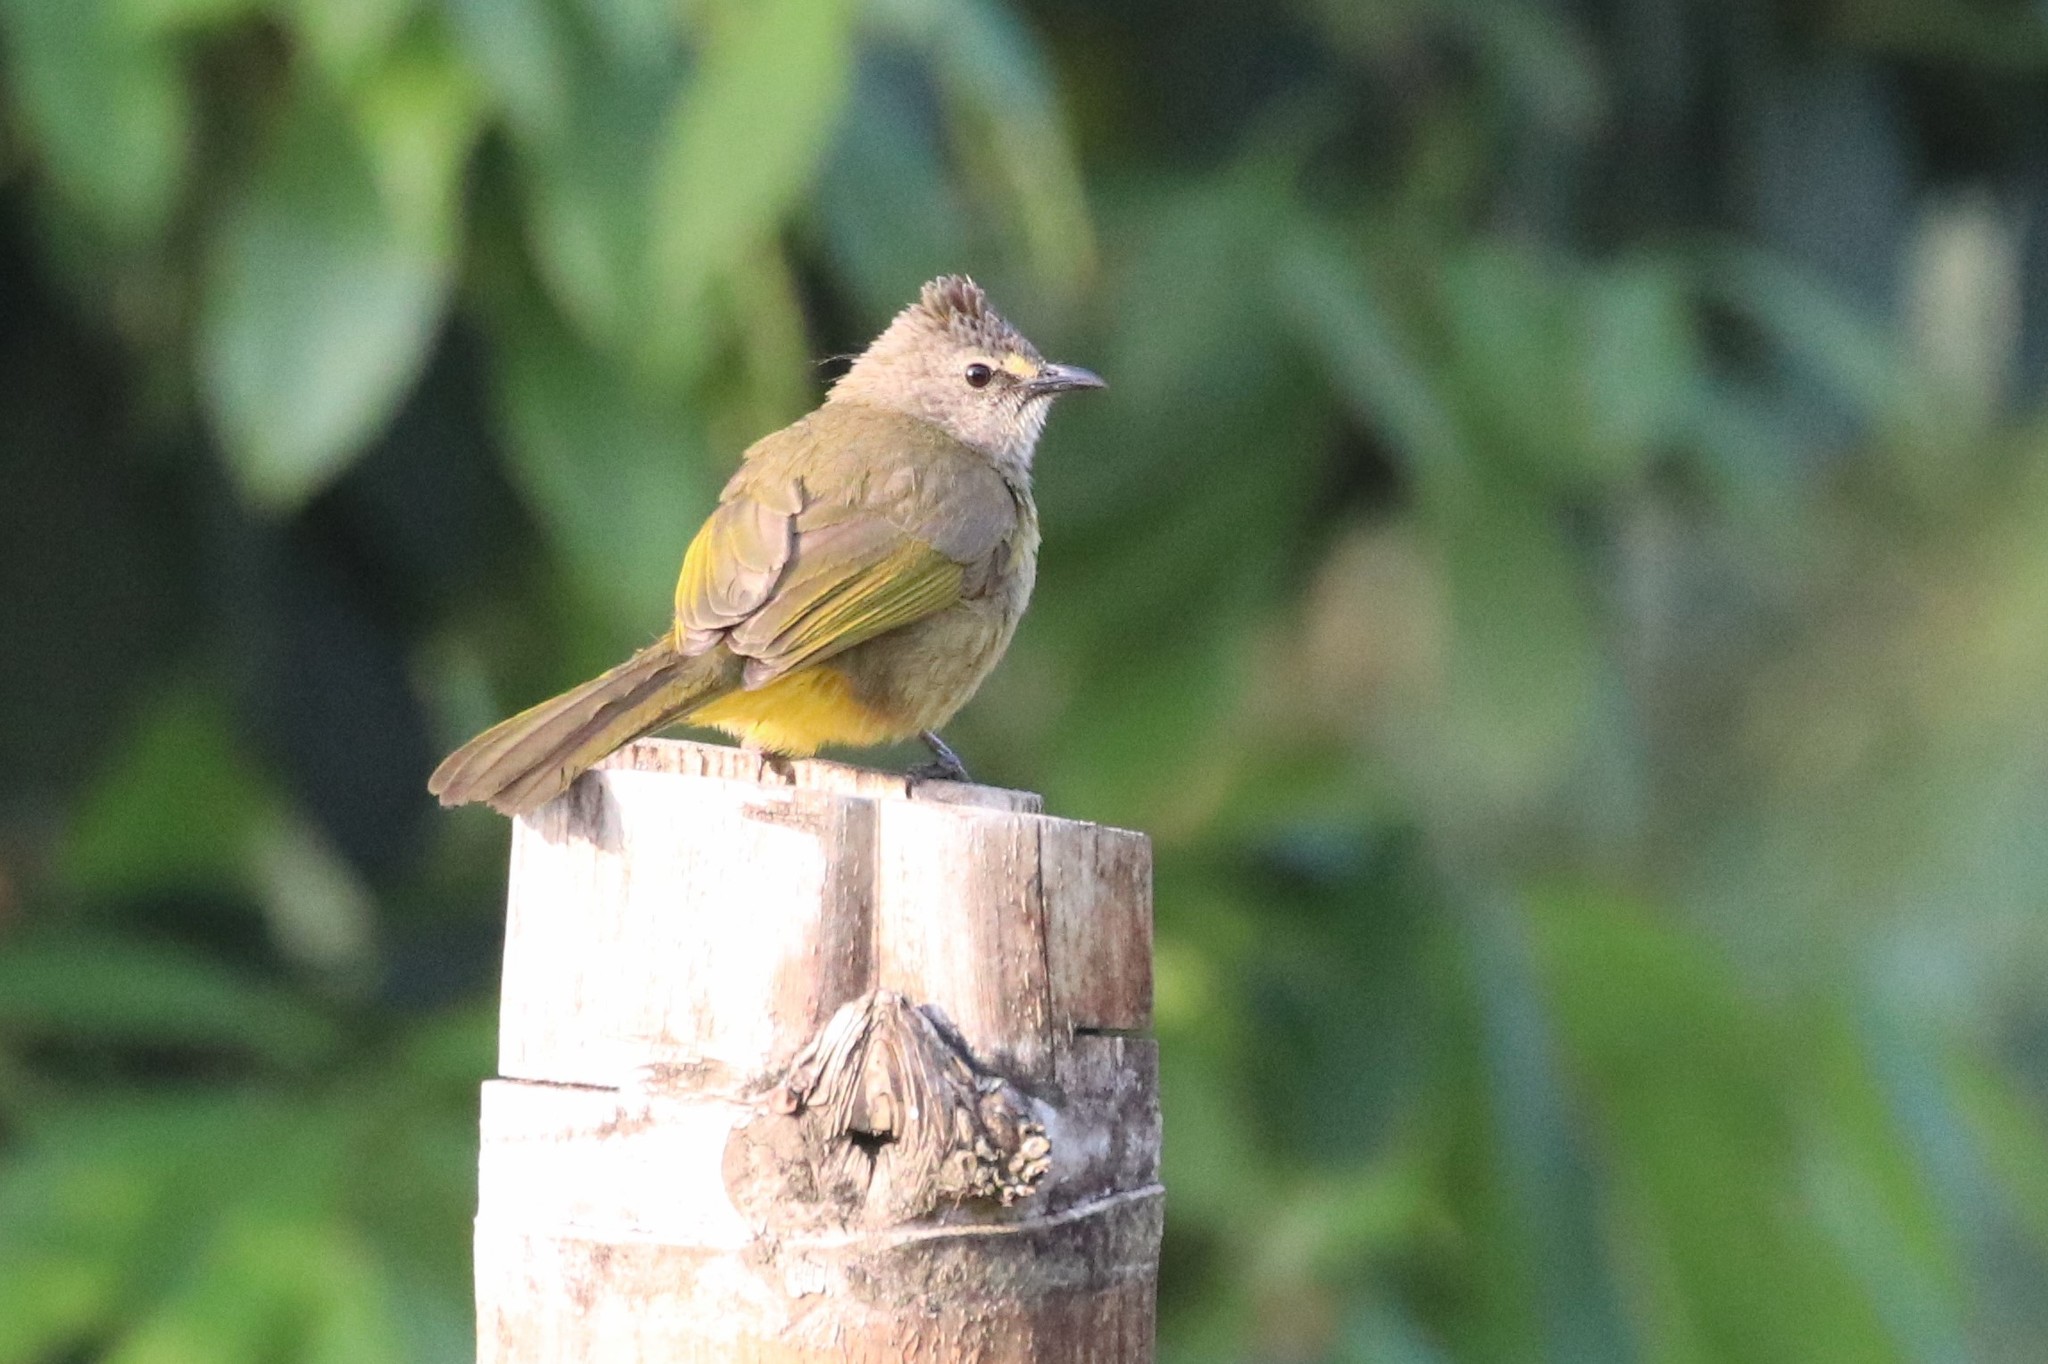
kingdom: Animalia
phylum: Chordata
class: Aves
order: Passeriformes
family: Pycnonotidae
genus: Pycnonotus
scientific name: Pycnonotus flavescens
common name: Flavescent bulbul
